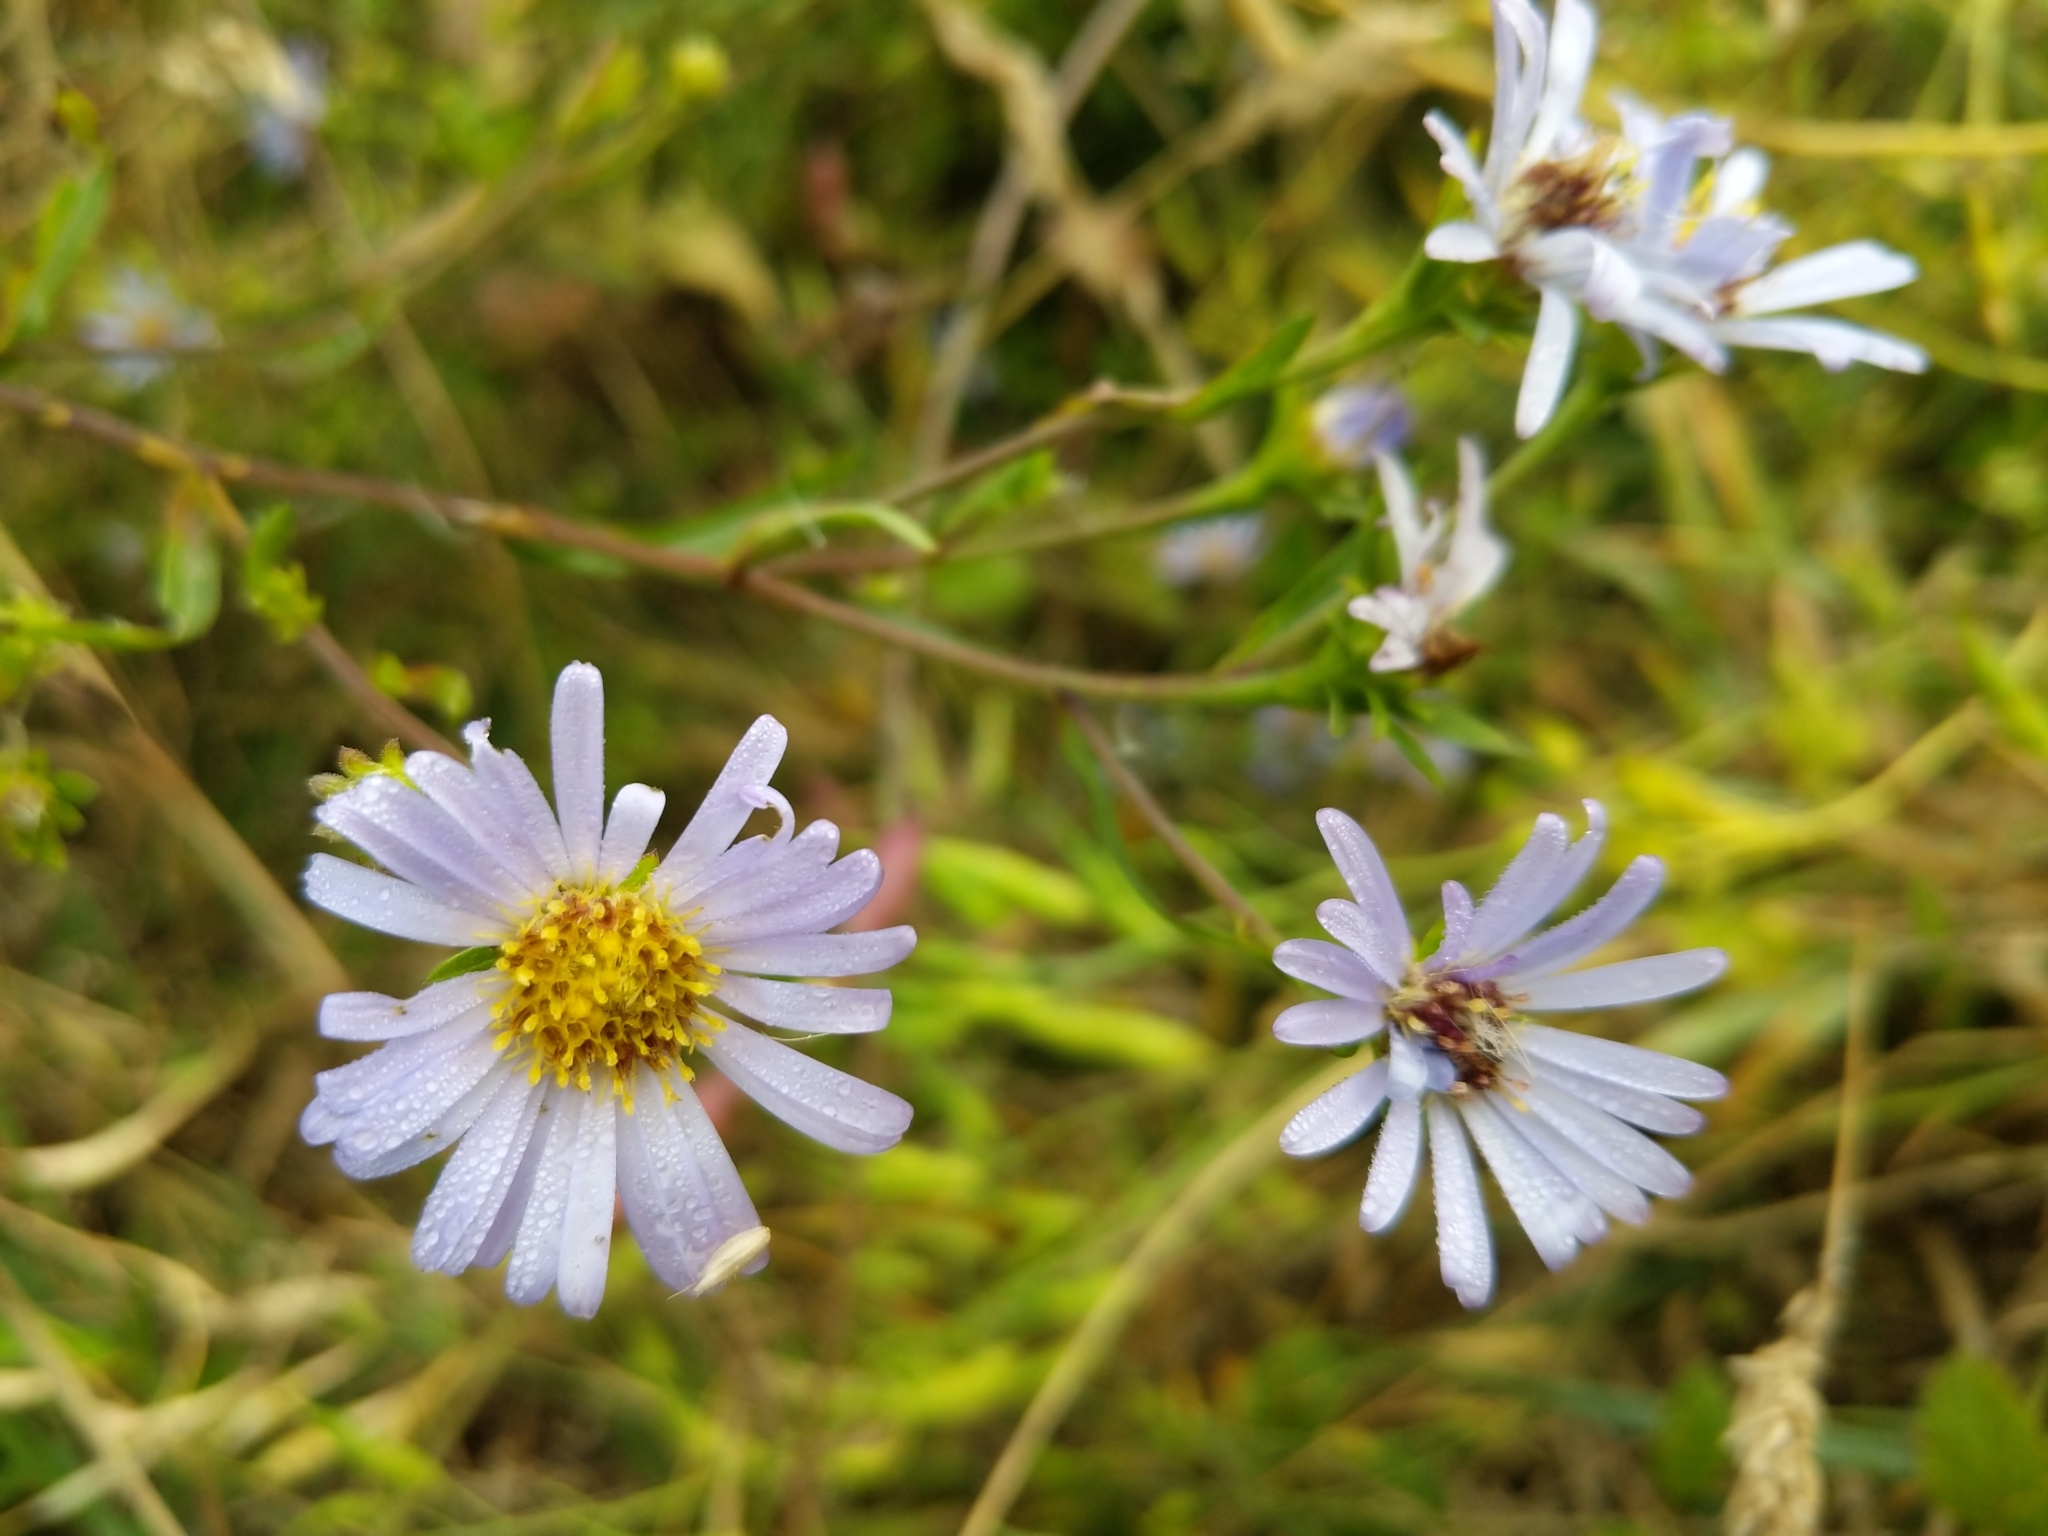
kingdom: Plantae
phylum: Tracheophyta
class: Magnoliopsida
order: Asterales
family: Asteraceae
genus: Symphyotrichum
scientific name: Symphyotrichum chilense
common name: Pacific aster
